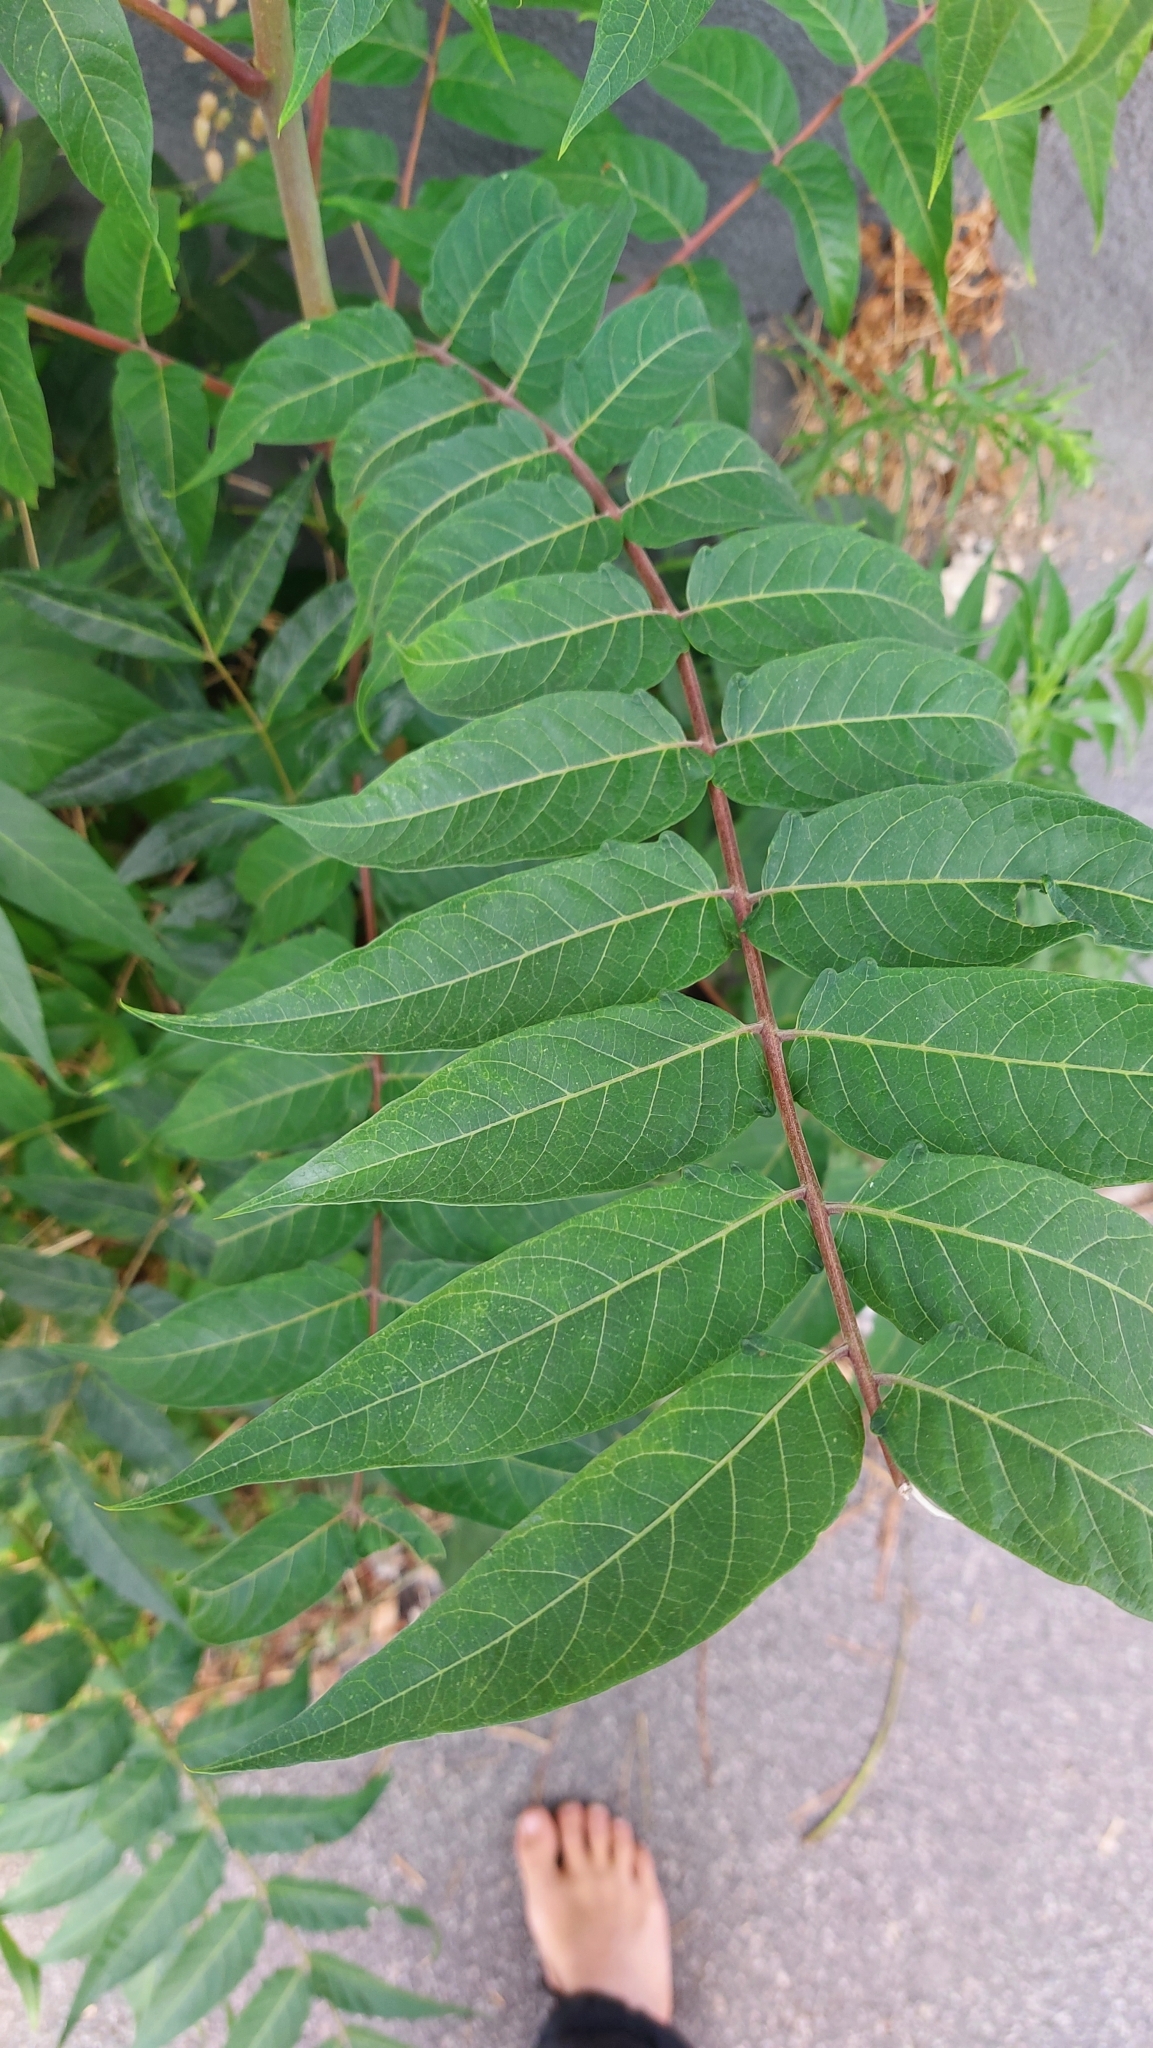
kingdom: Plantae
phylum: Tracheophyta
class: Magnoliopsida
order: Sapindales
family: Simaroubaceae
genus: Ailanthus
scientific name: Ailanthus altissima
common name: Tree-of-heaven
